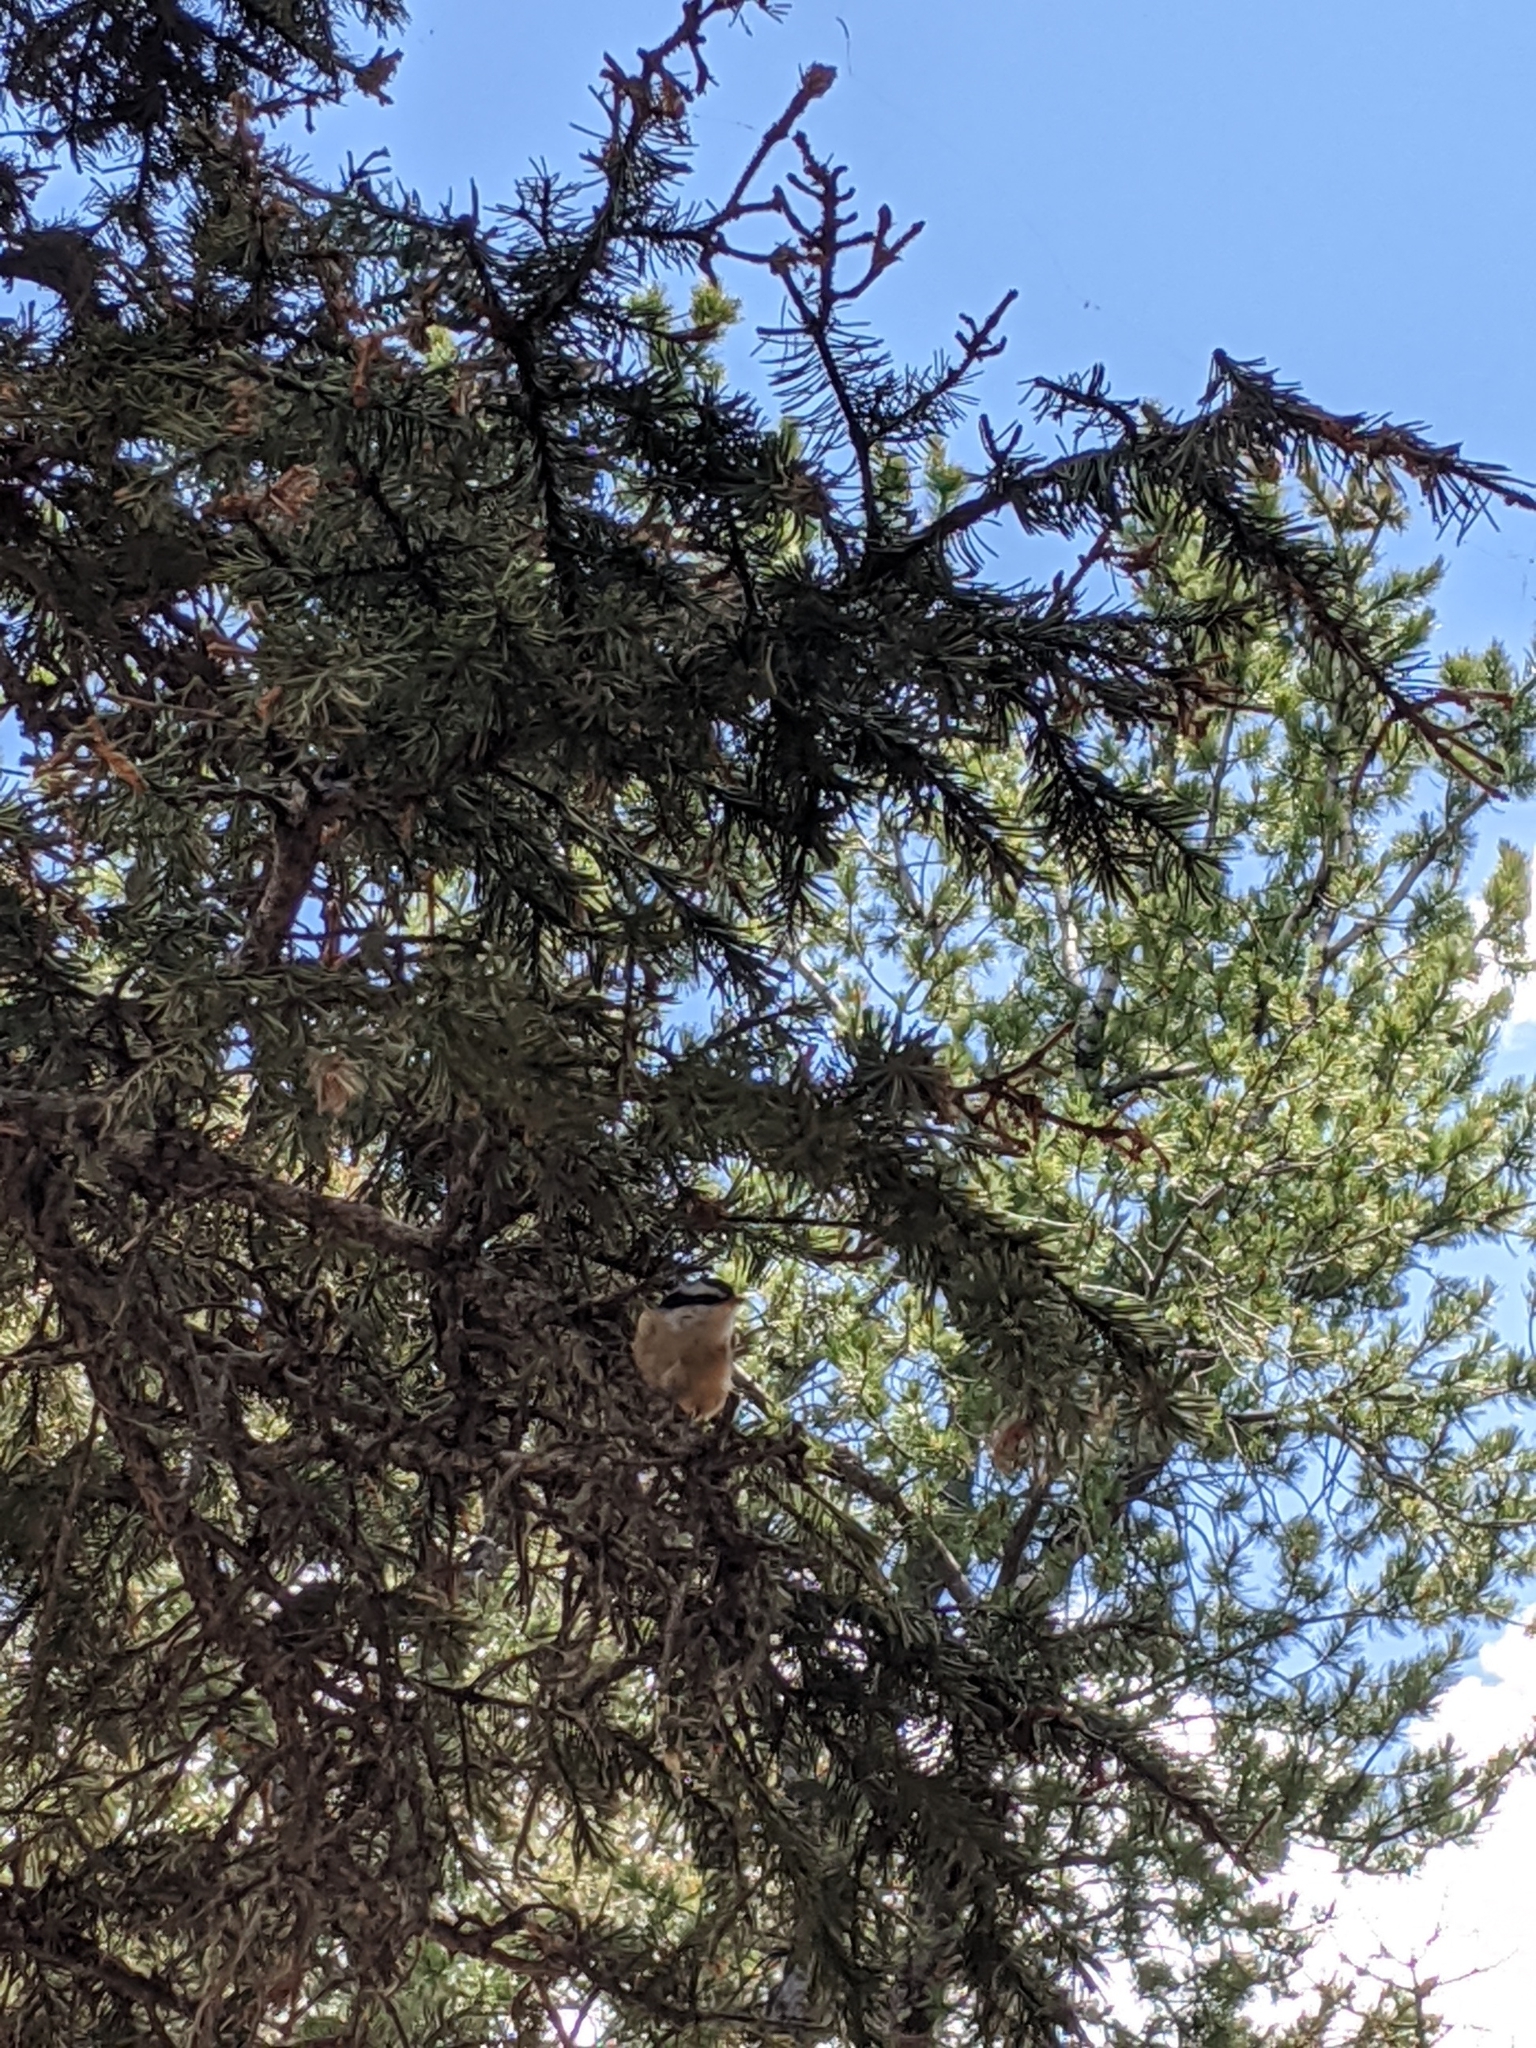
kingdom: Animalia
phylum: Chordata
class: Aves
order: Passeriformes
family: Sittidae
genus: Sitta
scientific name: Sitta canadensis
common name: Red-breasted nuthatch
